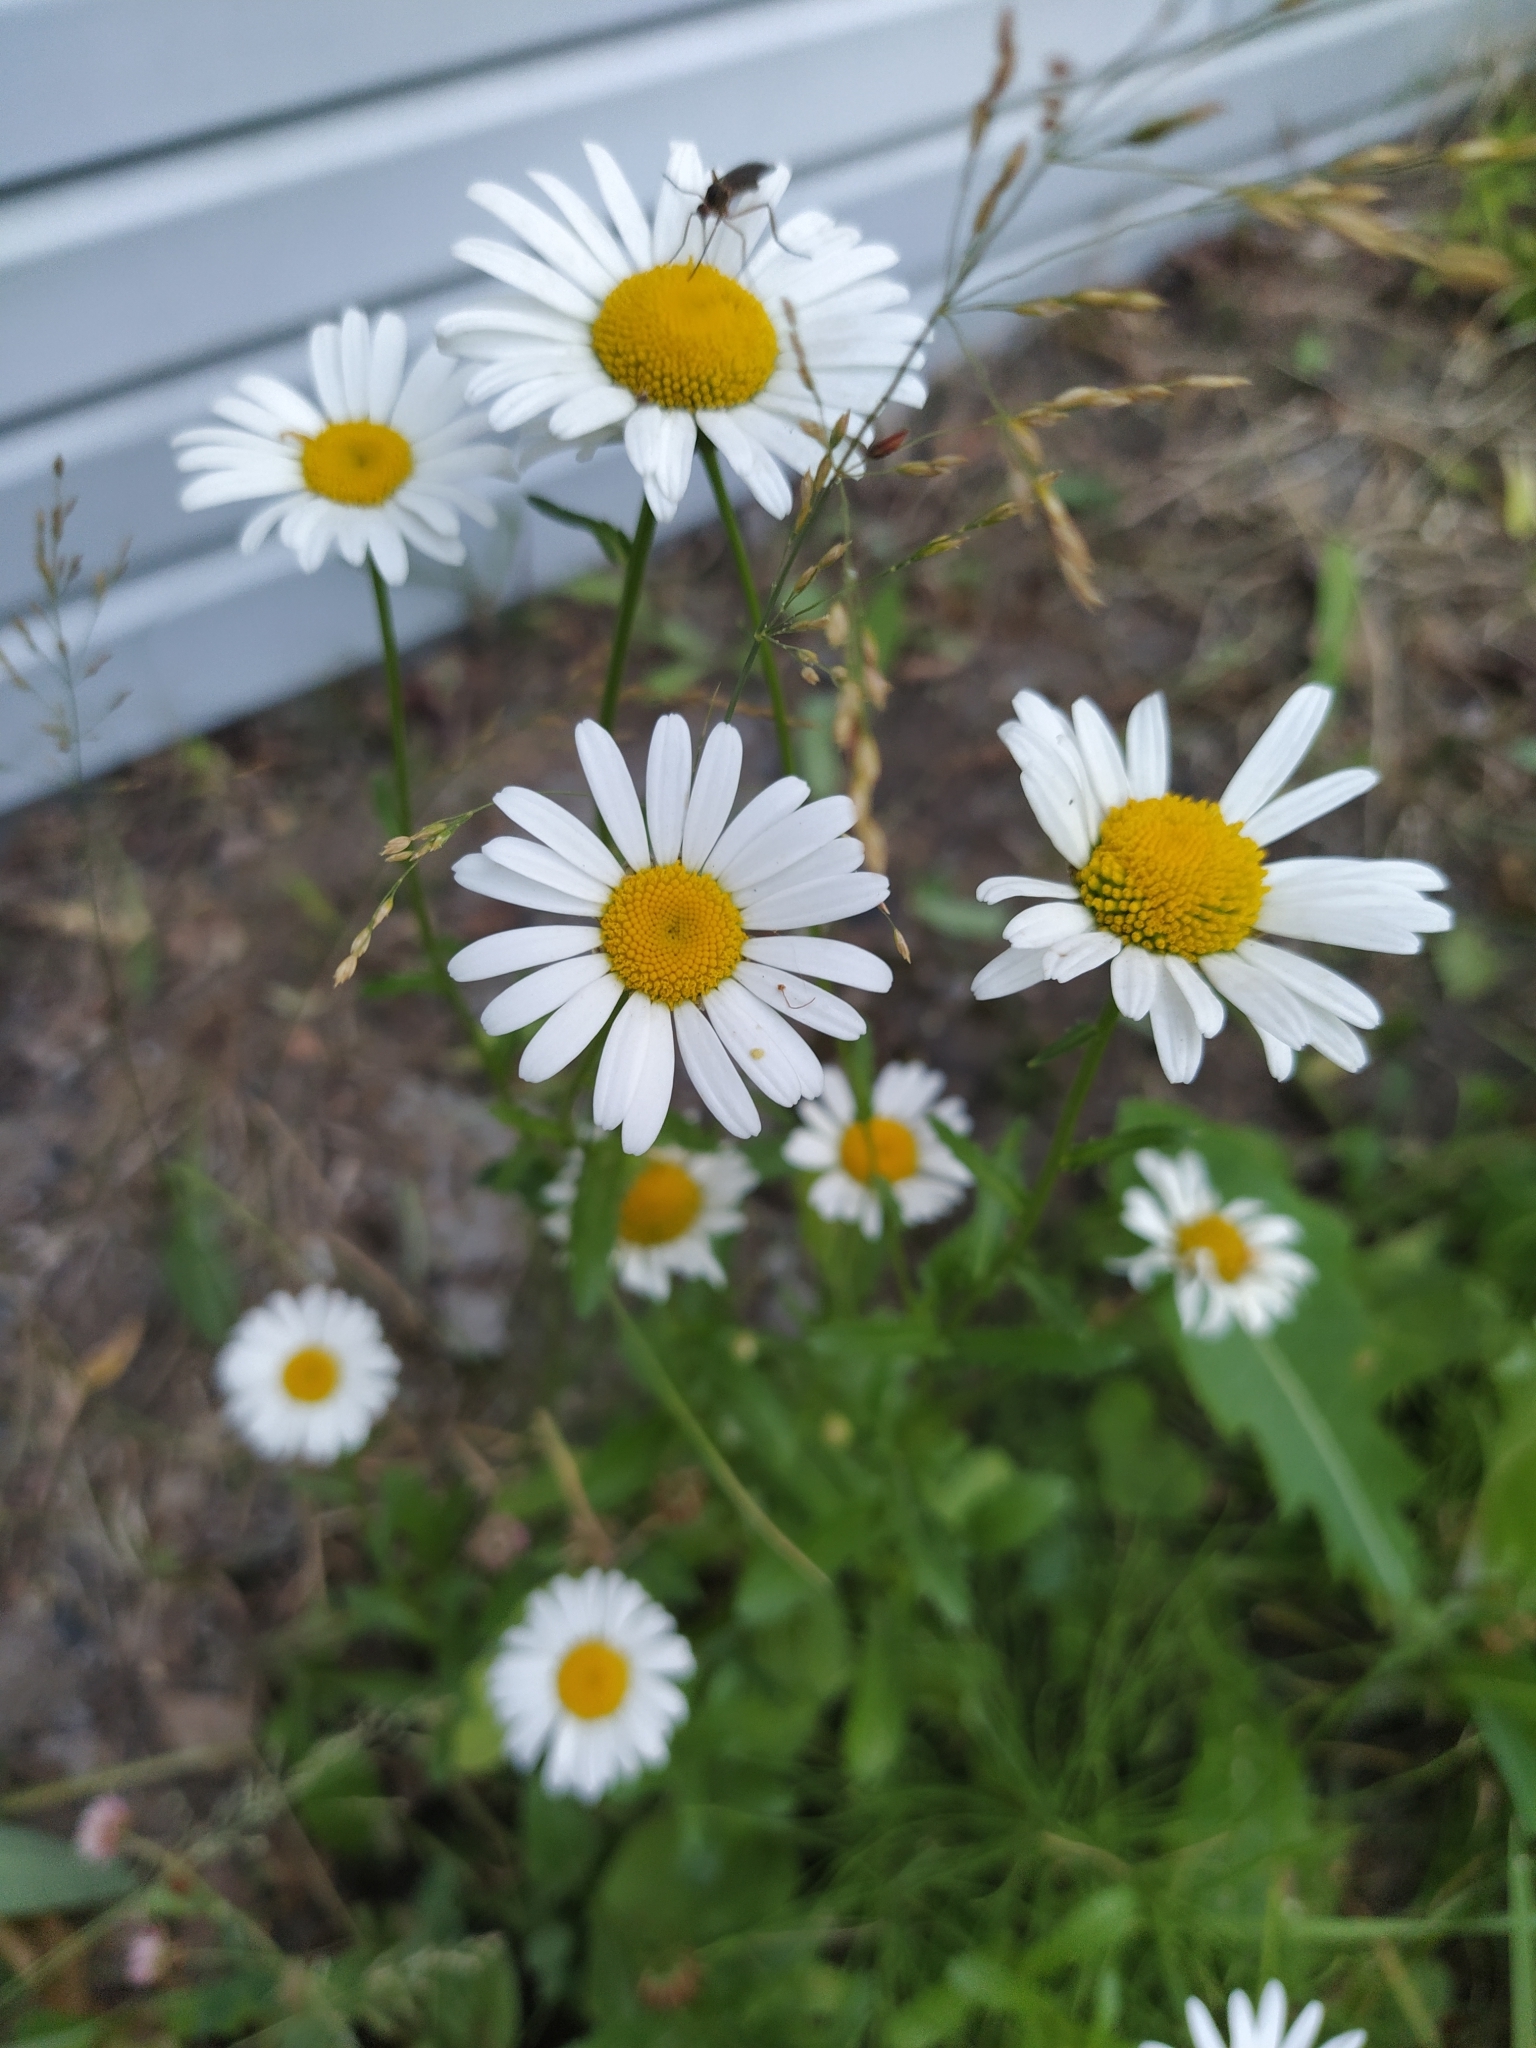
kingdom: Plantae
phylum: Tracheophyta
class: Magnoliopsida
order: Asterales
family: Asteraceae
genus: Leucanthemum
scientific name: Leucanthemum vulgare
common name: Oxeye daisy
